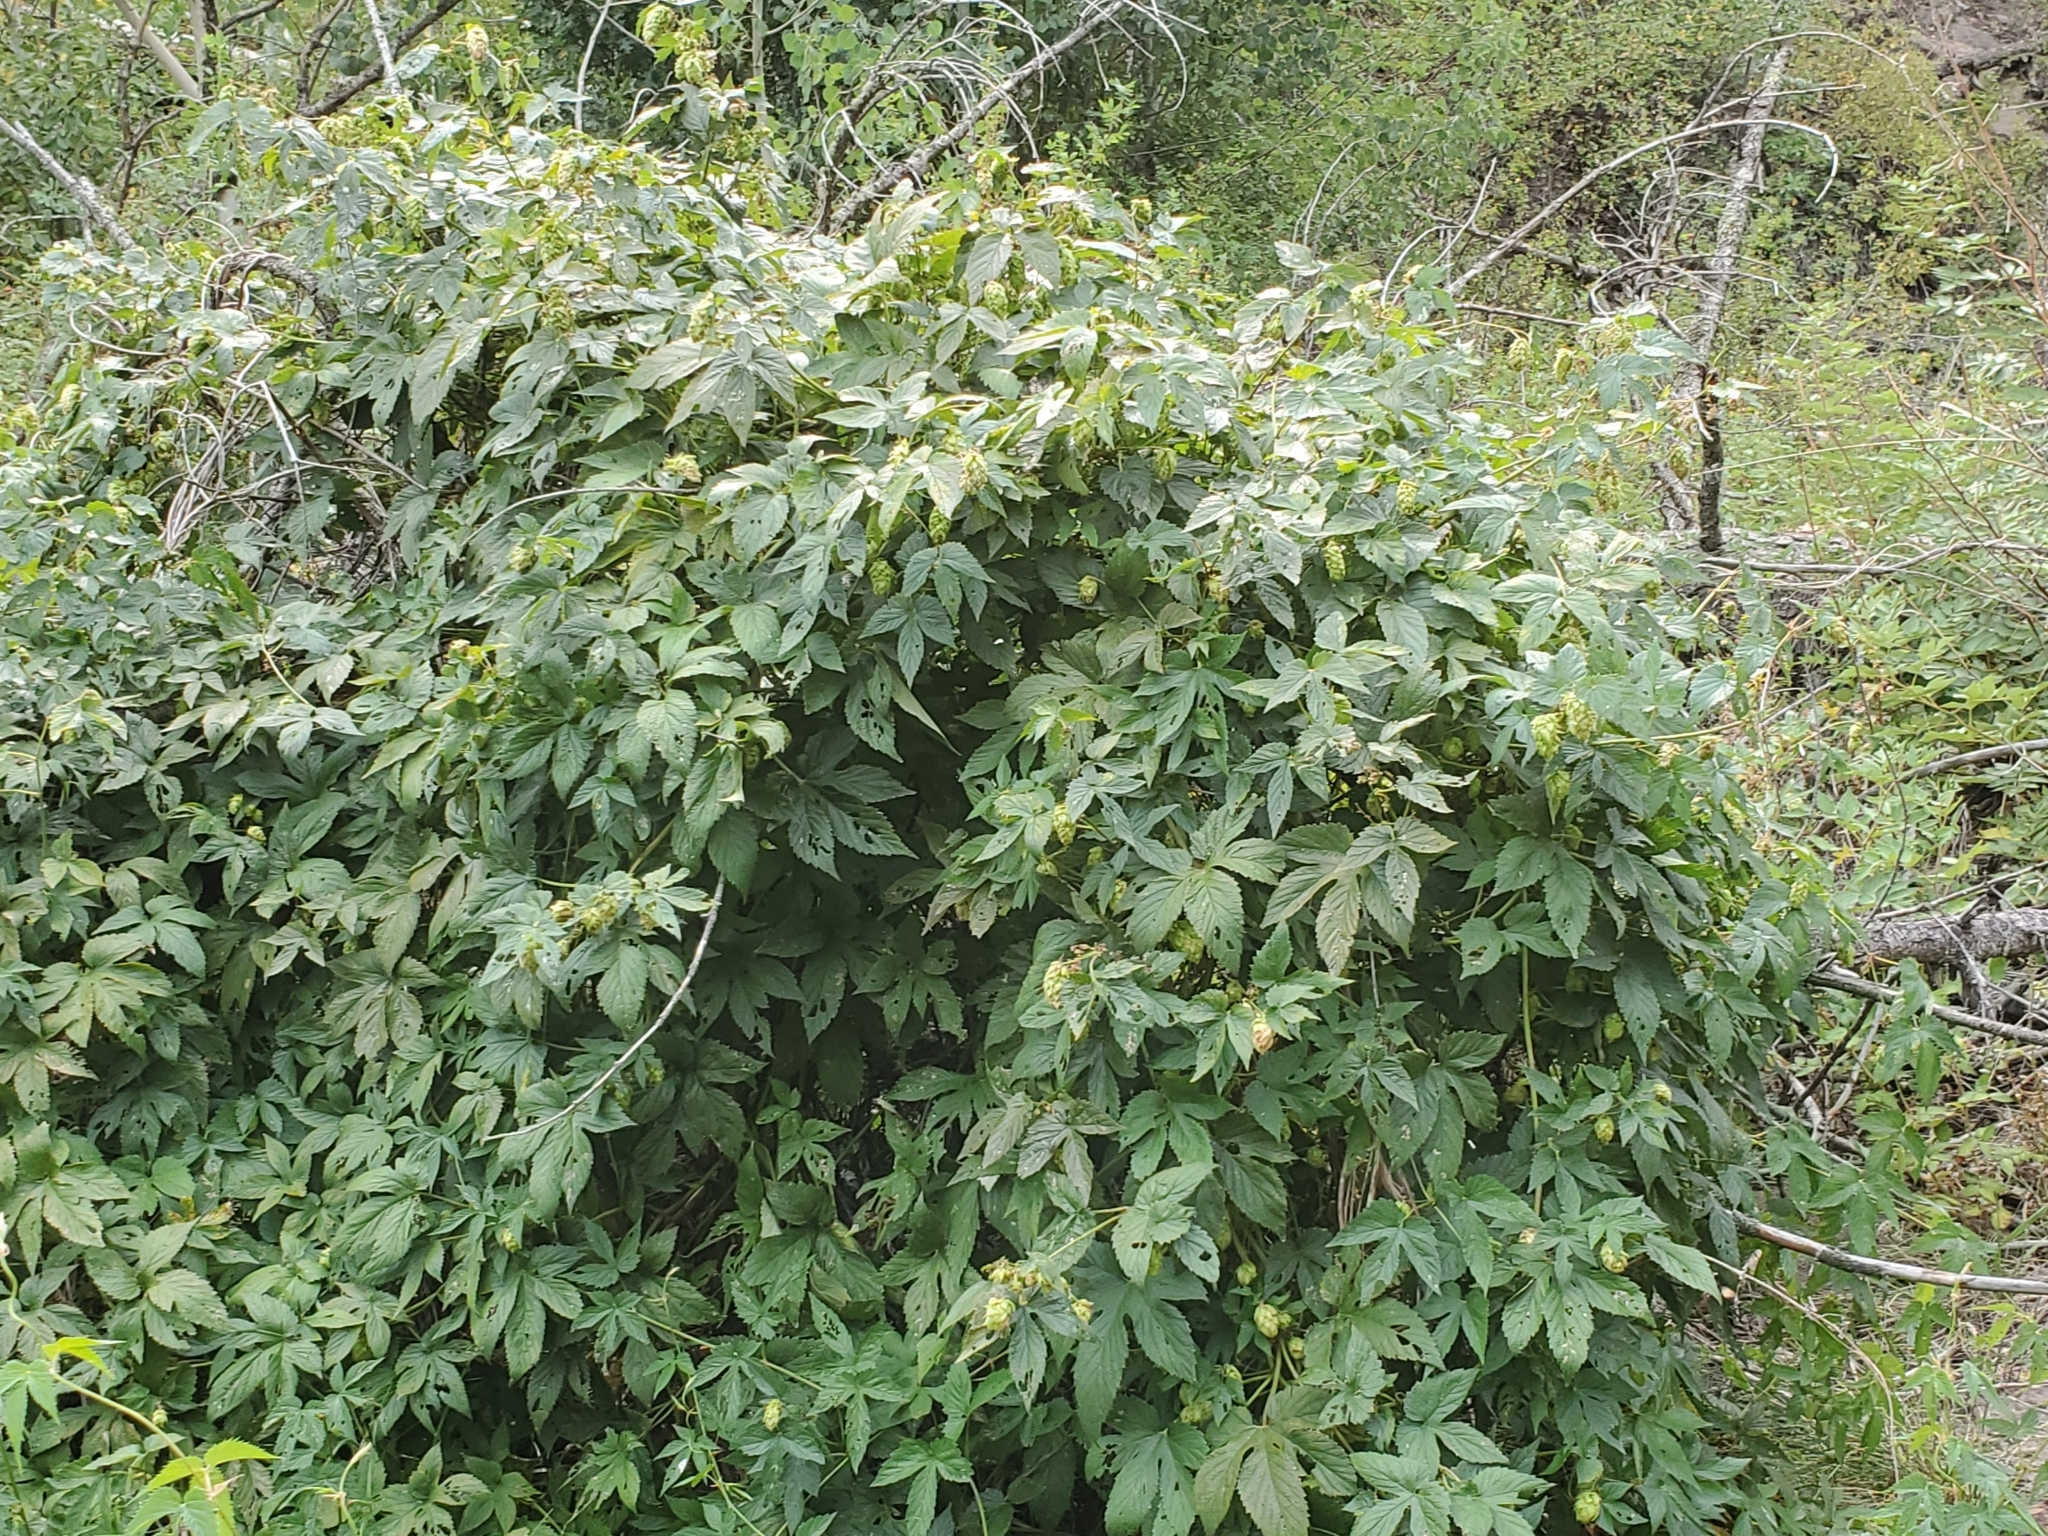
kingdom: Plantae
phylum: Tracheophyta
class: Magnoliopsida
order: Rosales
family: Cannabaceae
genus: Humulus
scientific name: Humulus lupulus
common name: Hop
